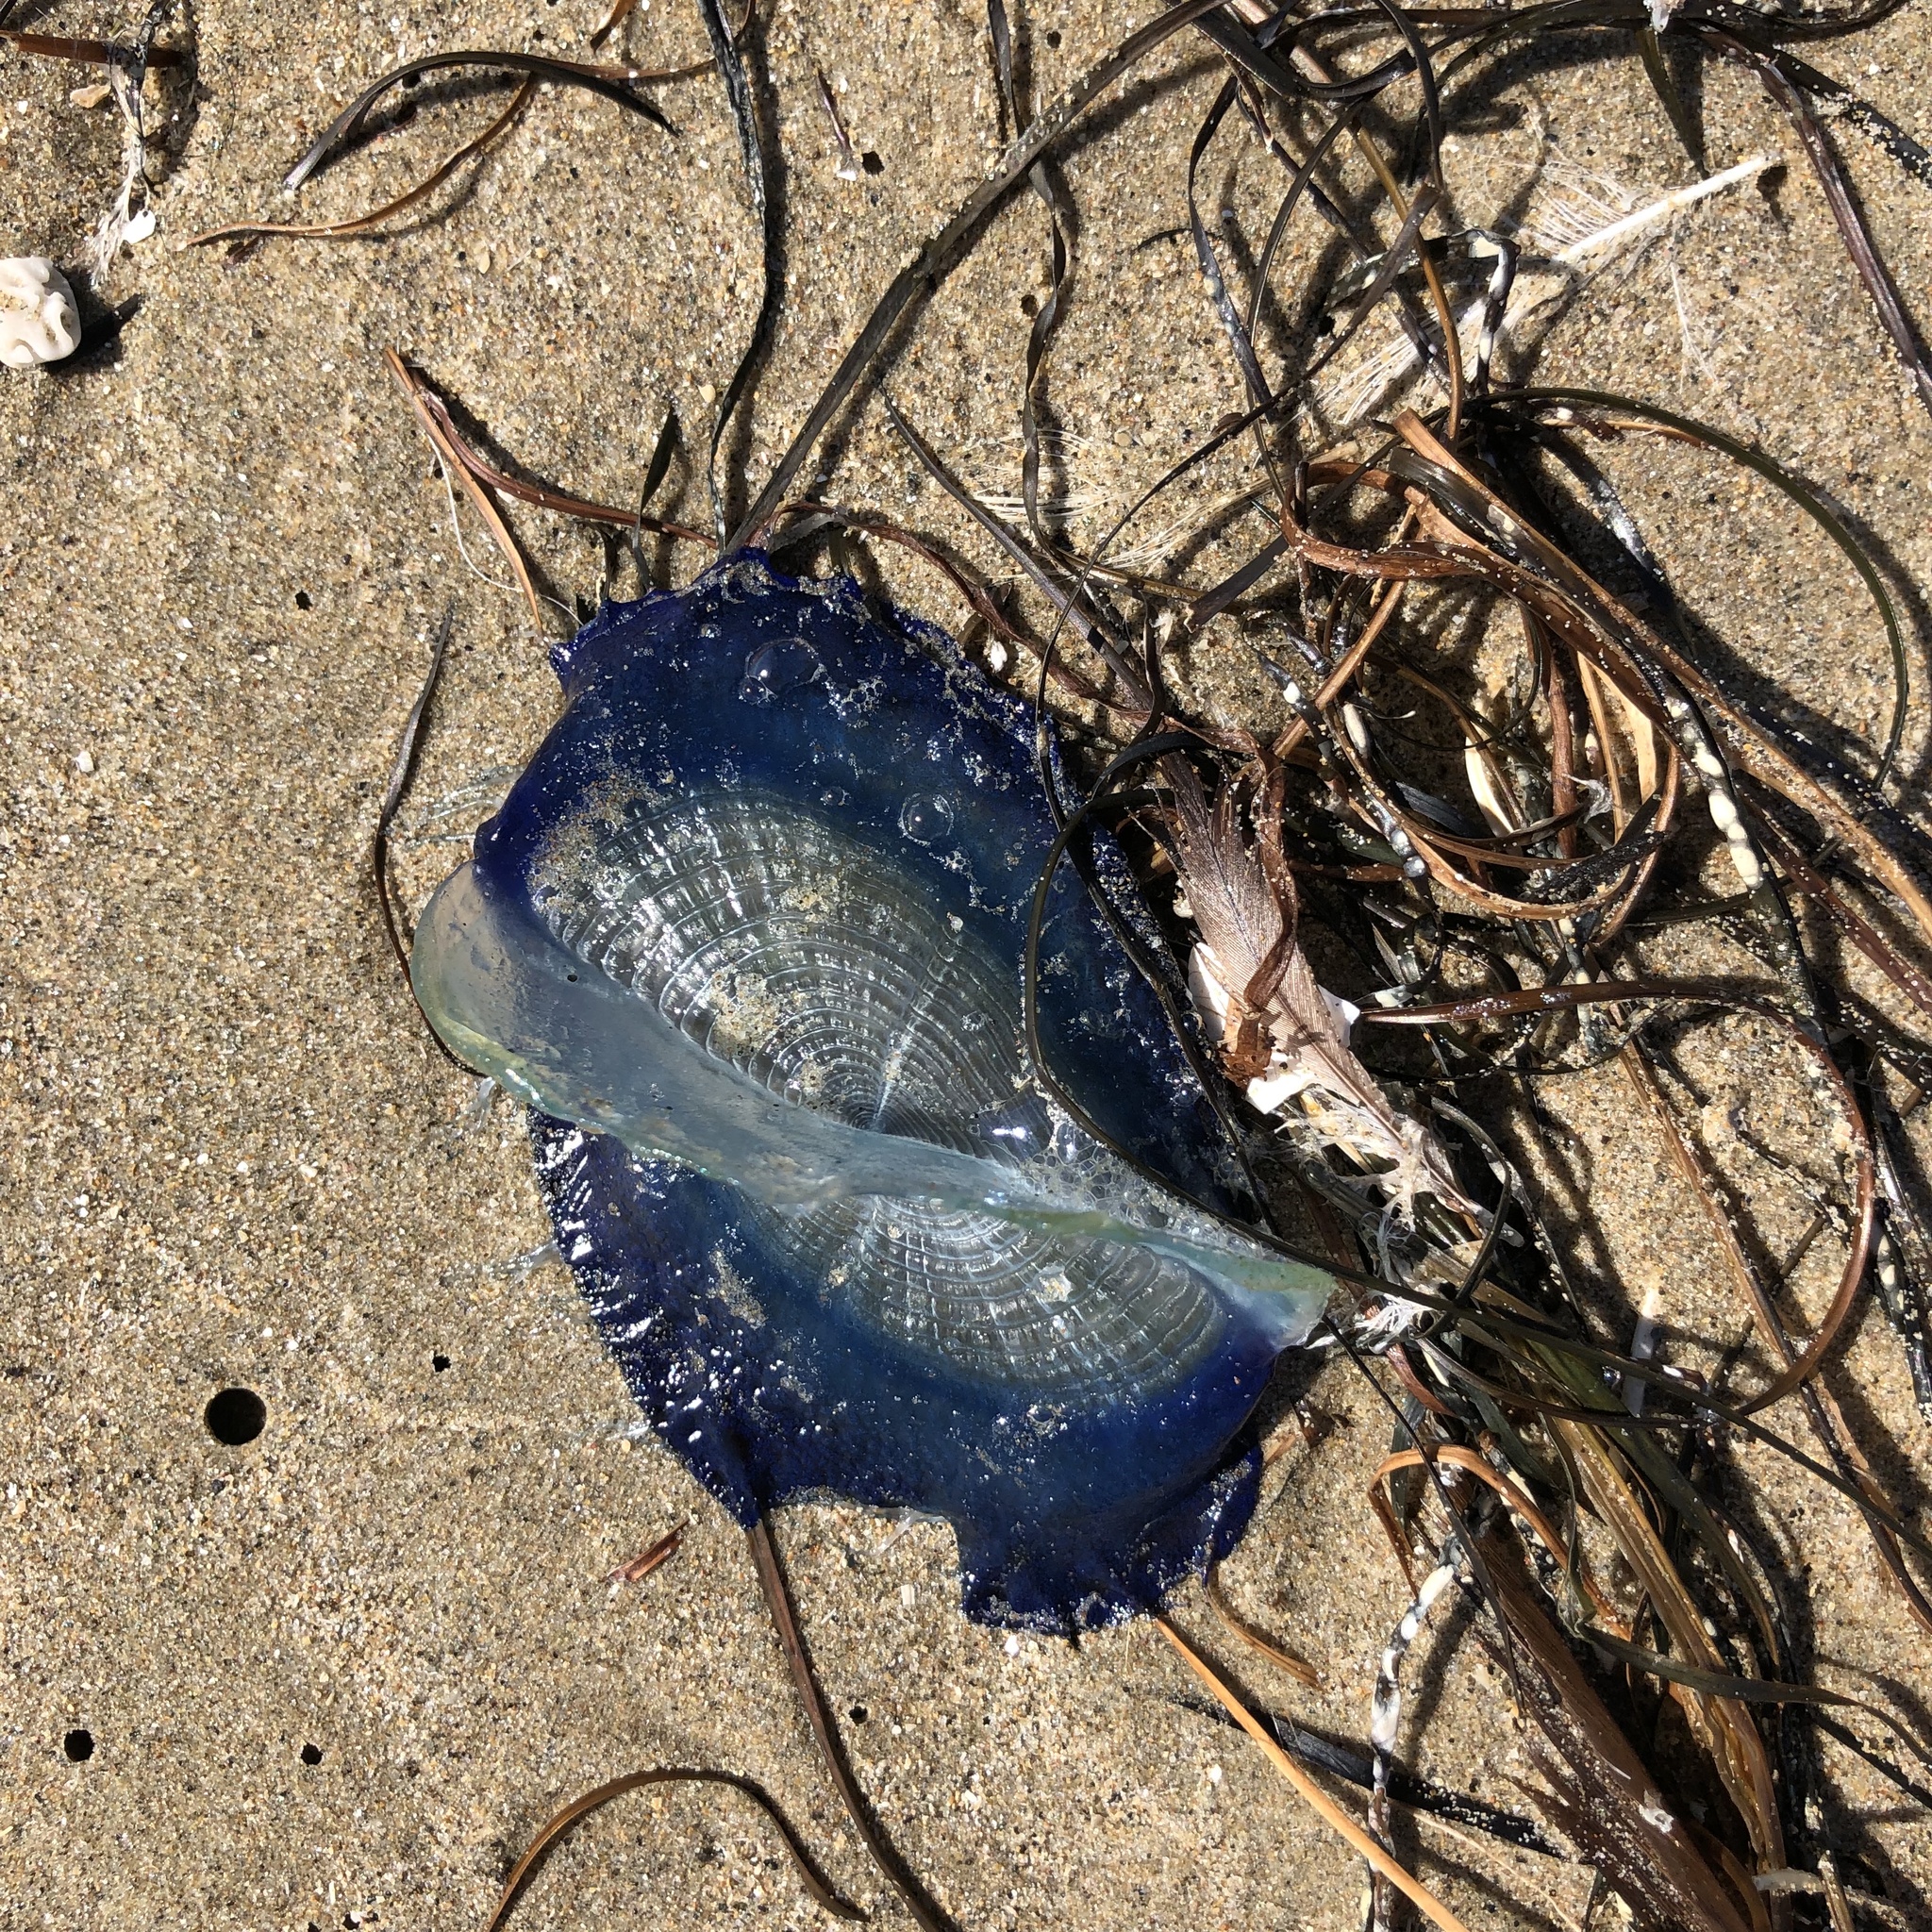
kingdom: Animalia
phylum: Cnidaria
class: Hydrozoa
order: Anthoathecata
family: Porpitidae
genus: Velella
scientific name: Velella velella
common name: By-the-wind-sailor
